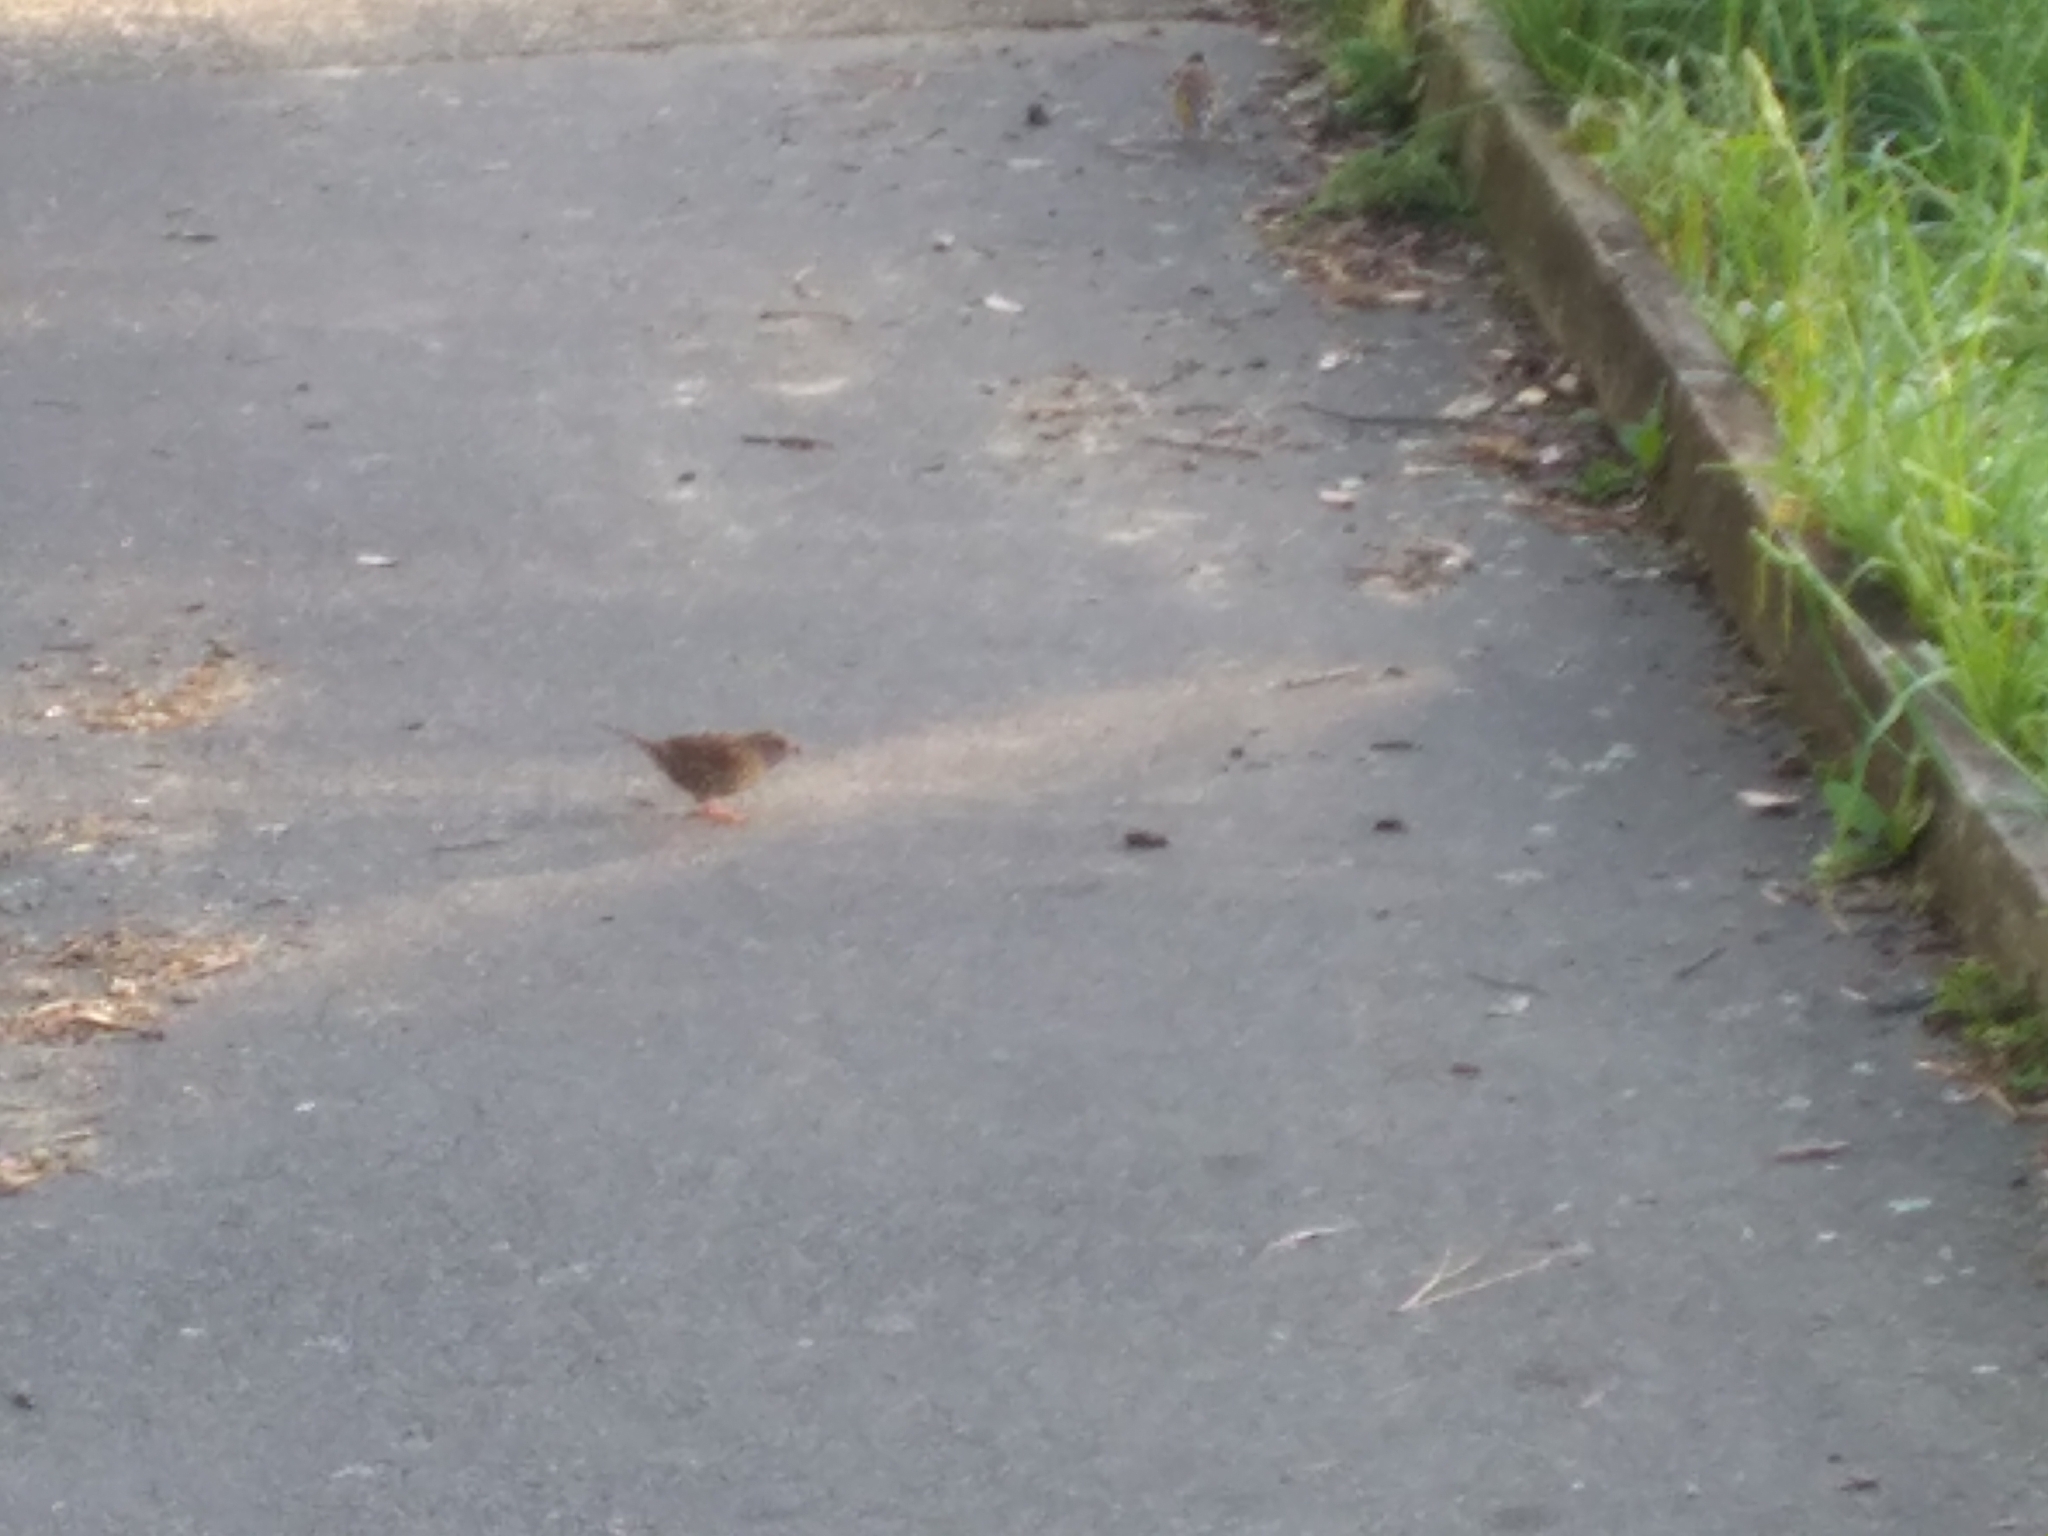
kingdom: Animalia
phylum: Chordata
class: Aves
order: Passeriformes
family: Prunellidae
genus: Prunella
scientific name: Prunella modularis
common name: Dunnock
